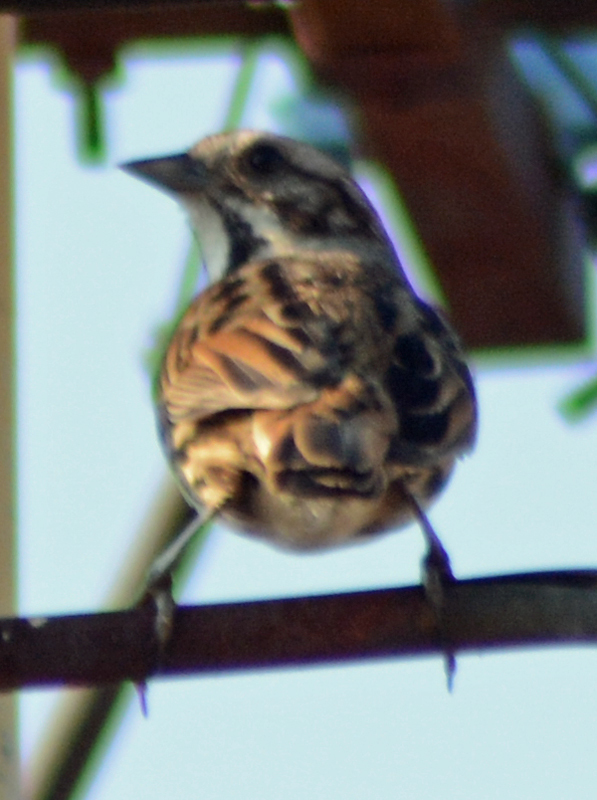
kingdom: Animalia
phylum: Chordata
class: Aves
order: Passeriformes
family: Passerellidae
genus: Melospiza
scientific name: Melospiza melodia
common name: Song sparrow
